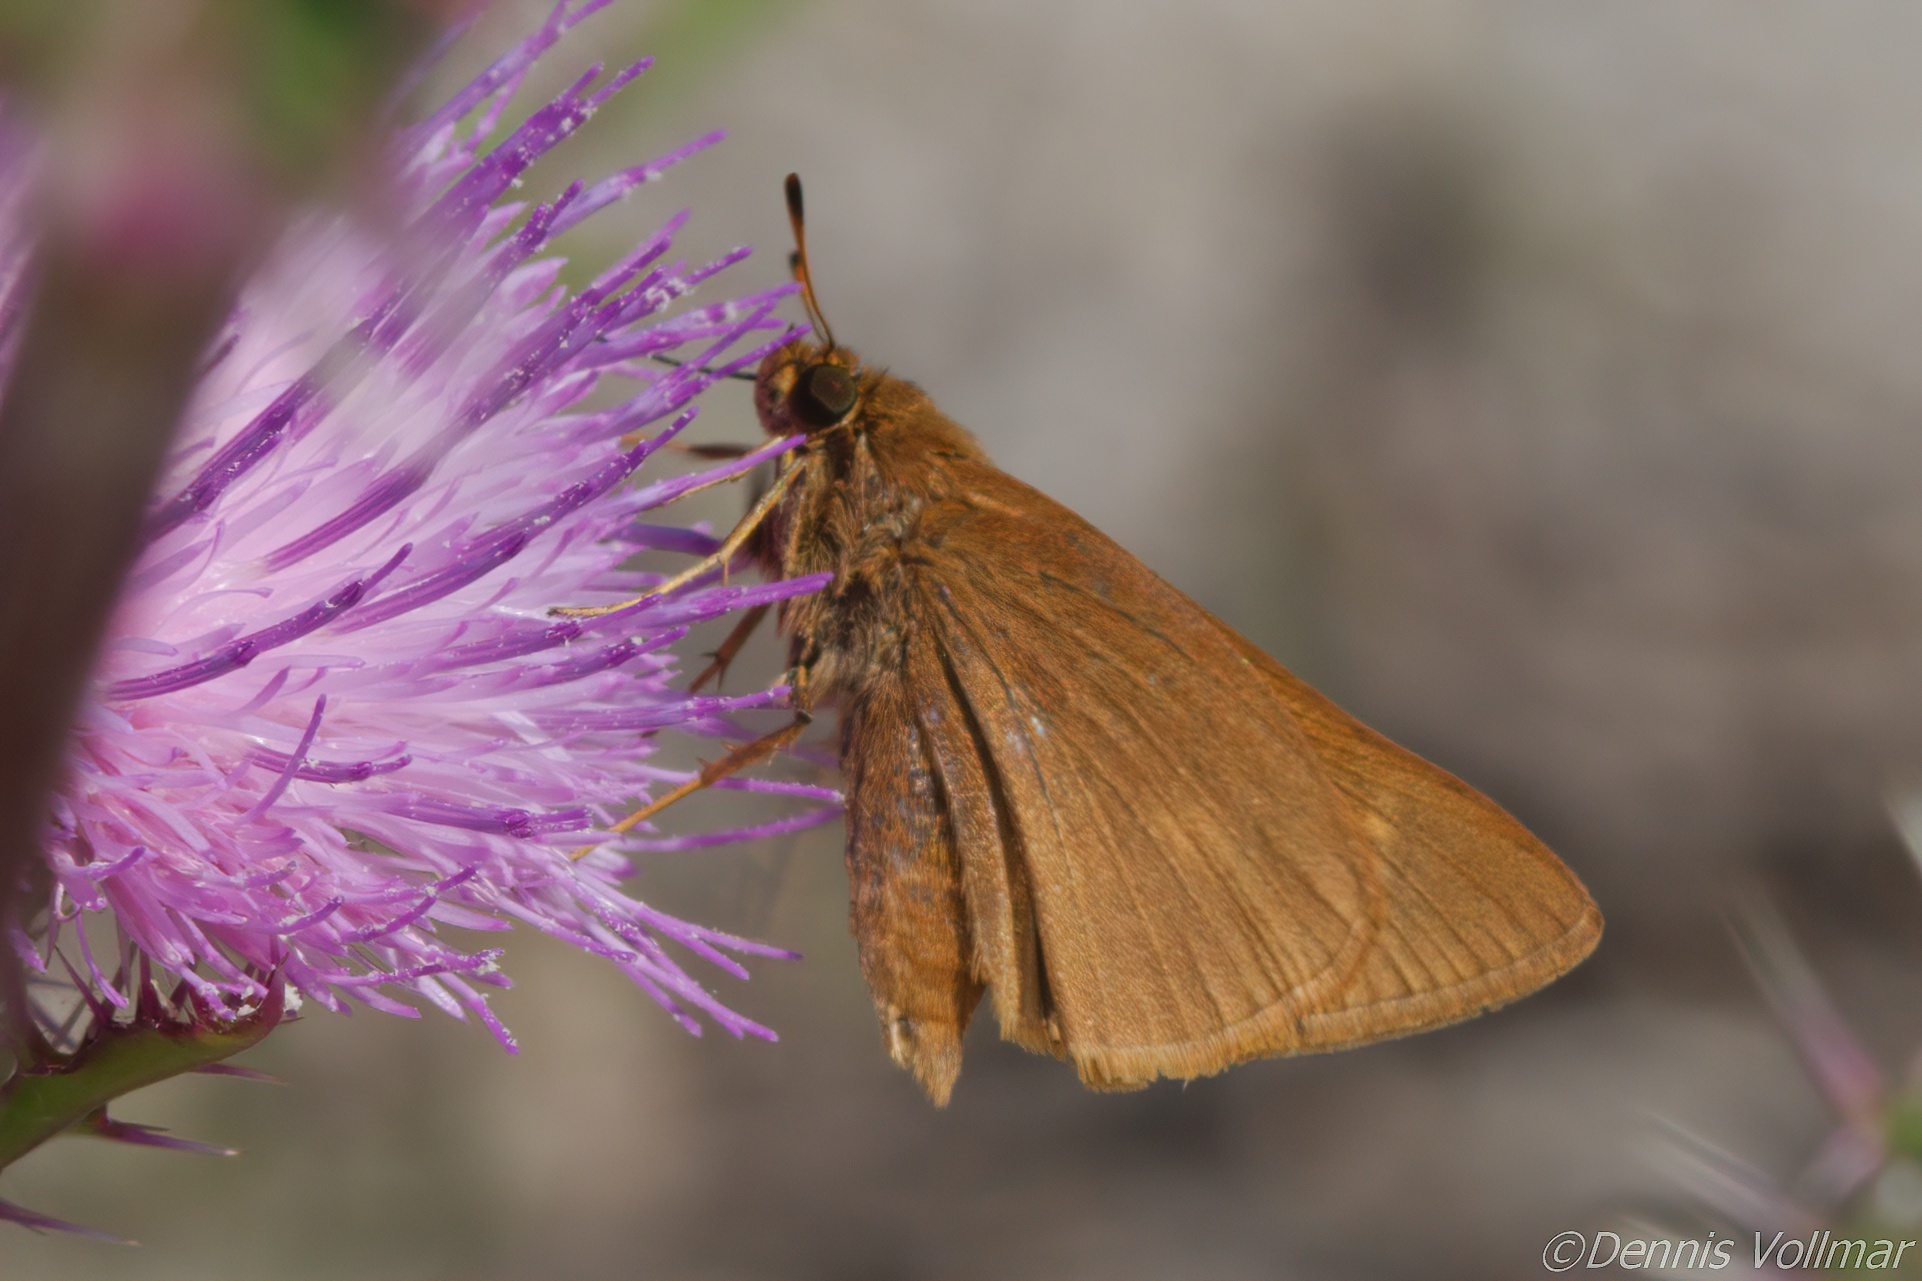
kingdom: Animalia
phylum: Arthropoda
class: Insecta
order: Lepidoptera
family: Hesperiidae
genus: Euphyes
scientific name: Euphyes pilatka
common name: Palatka skipper
